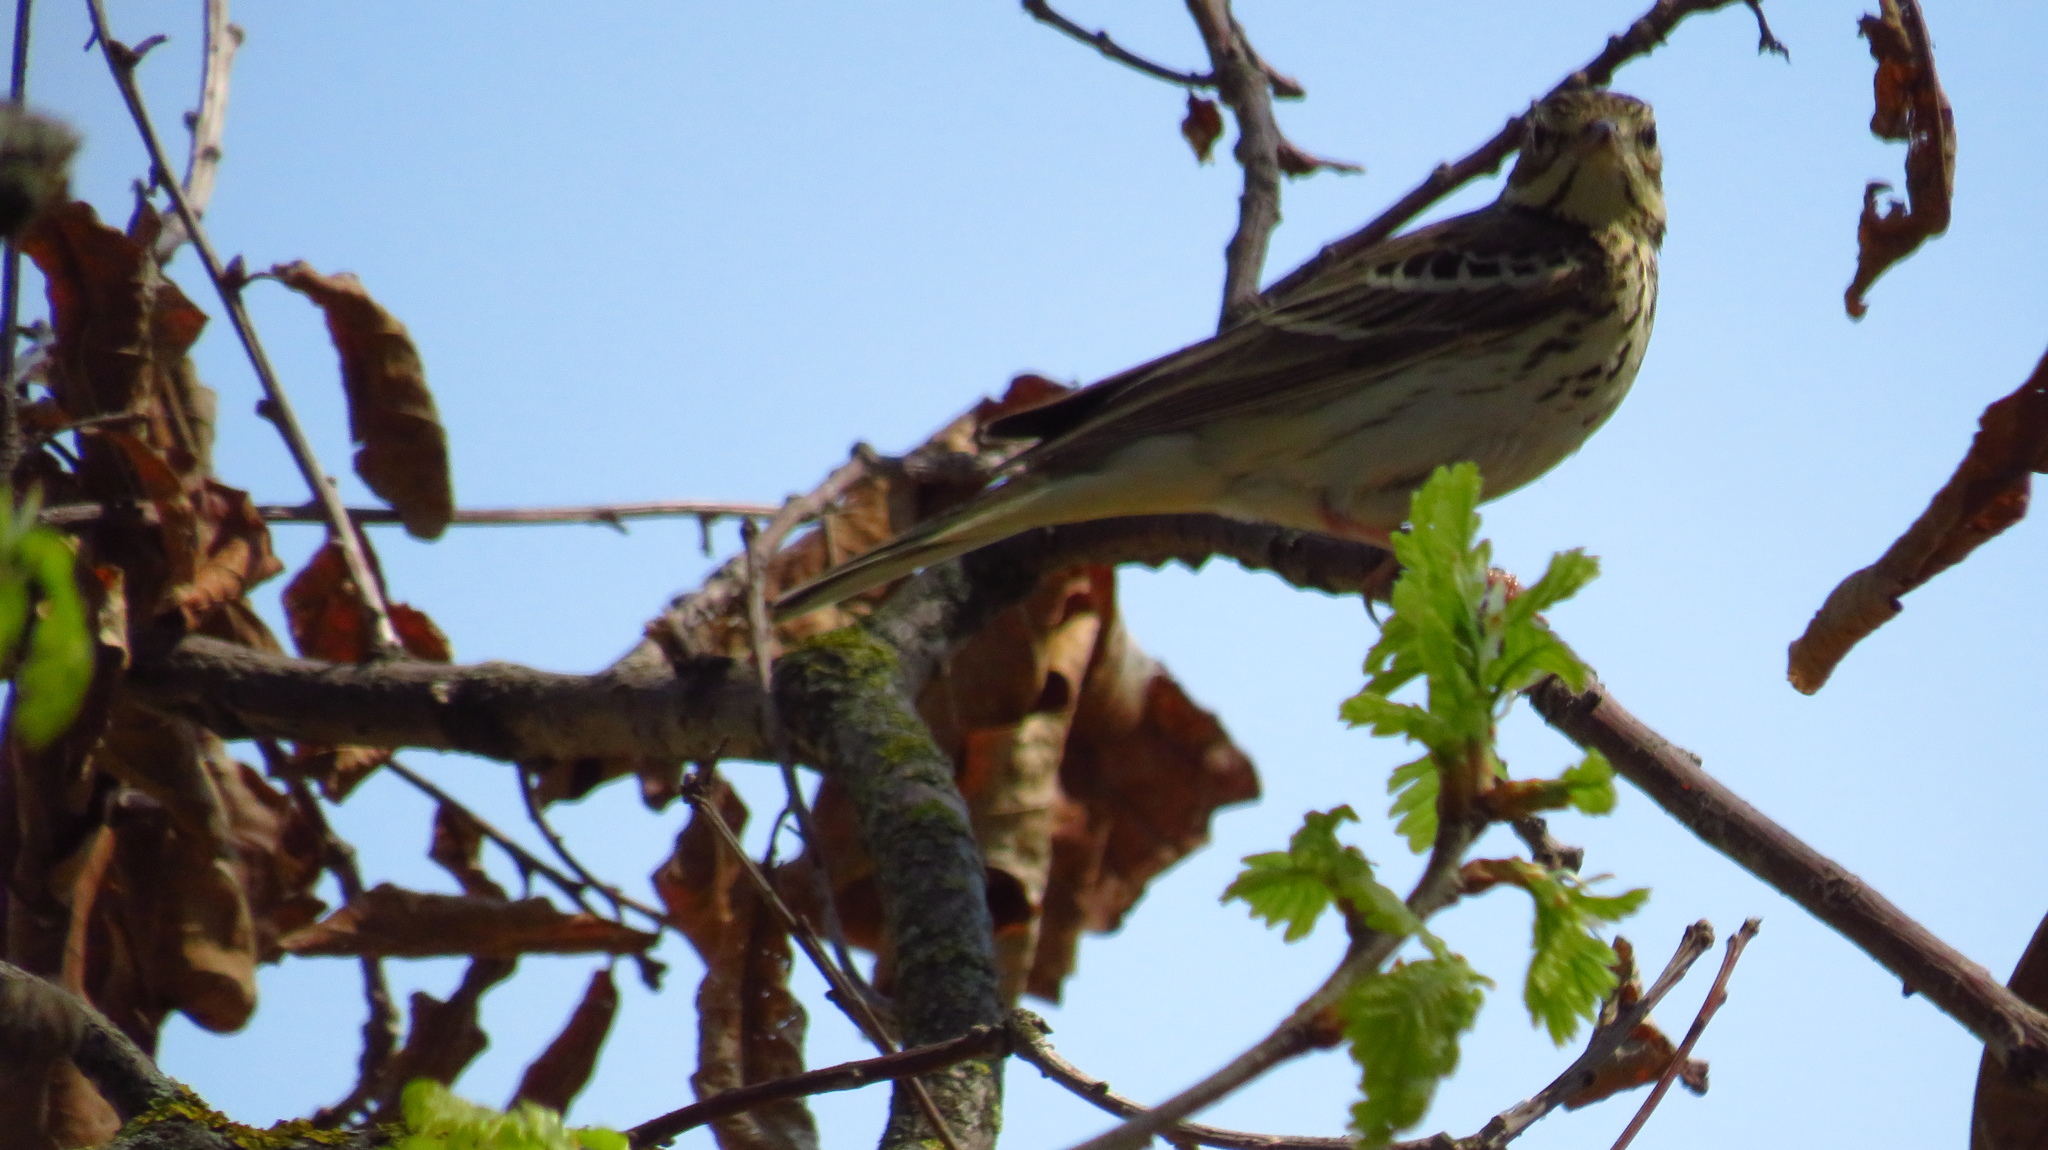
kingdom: Animalia
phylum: Chordata
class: Aves
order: Passeriformes
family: Motacillidae
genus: Anthus
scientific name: Anthus trivialis
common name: Tree pipit
